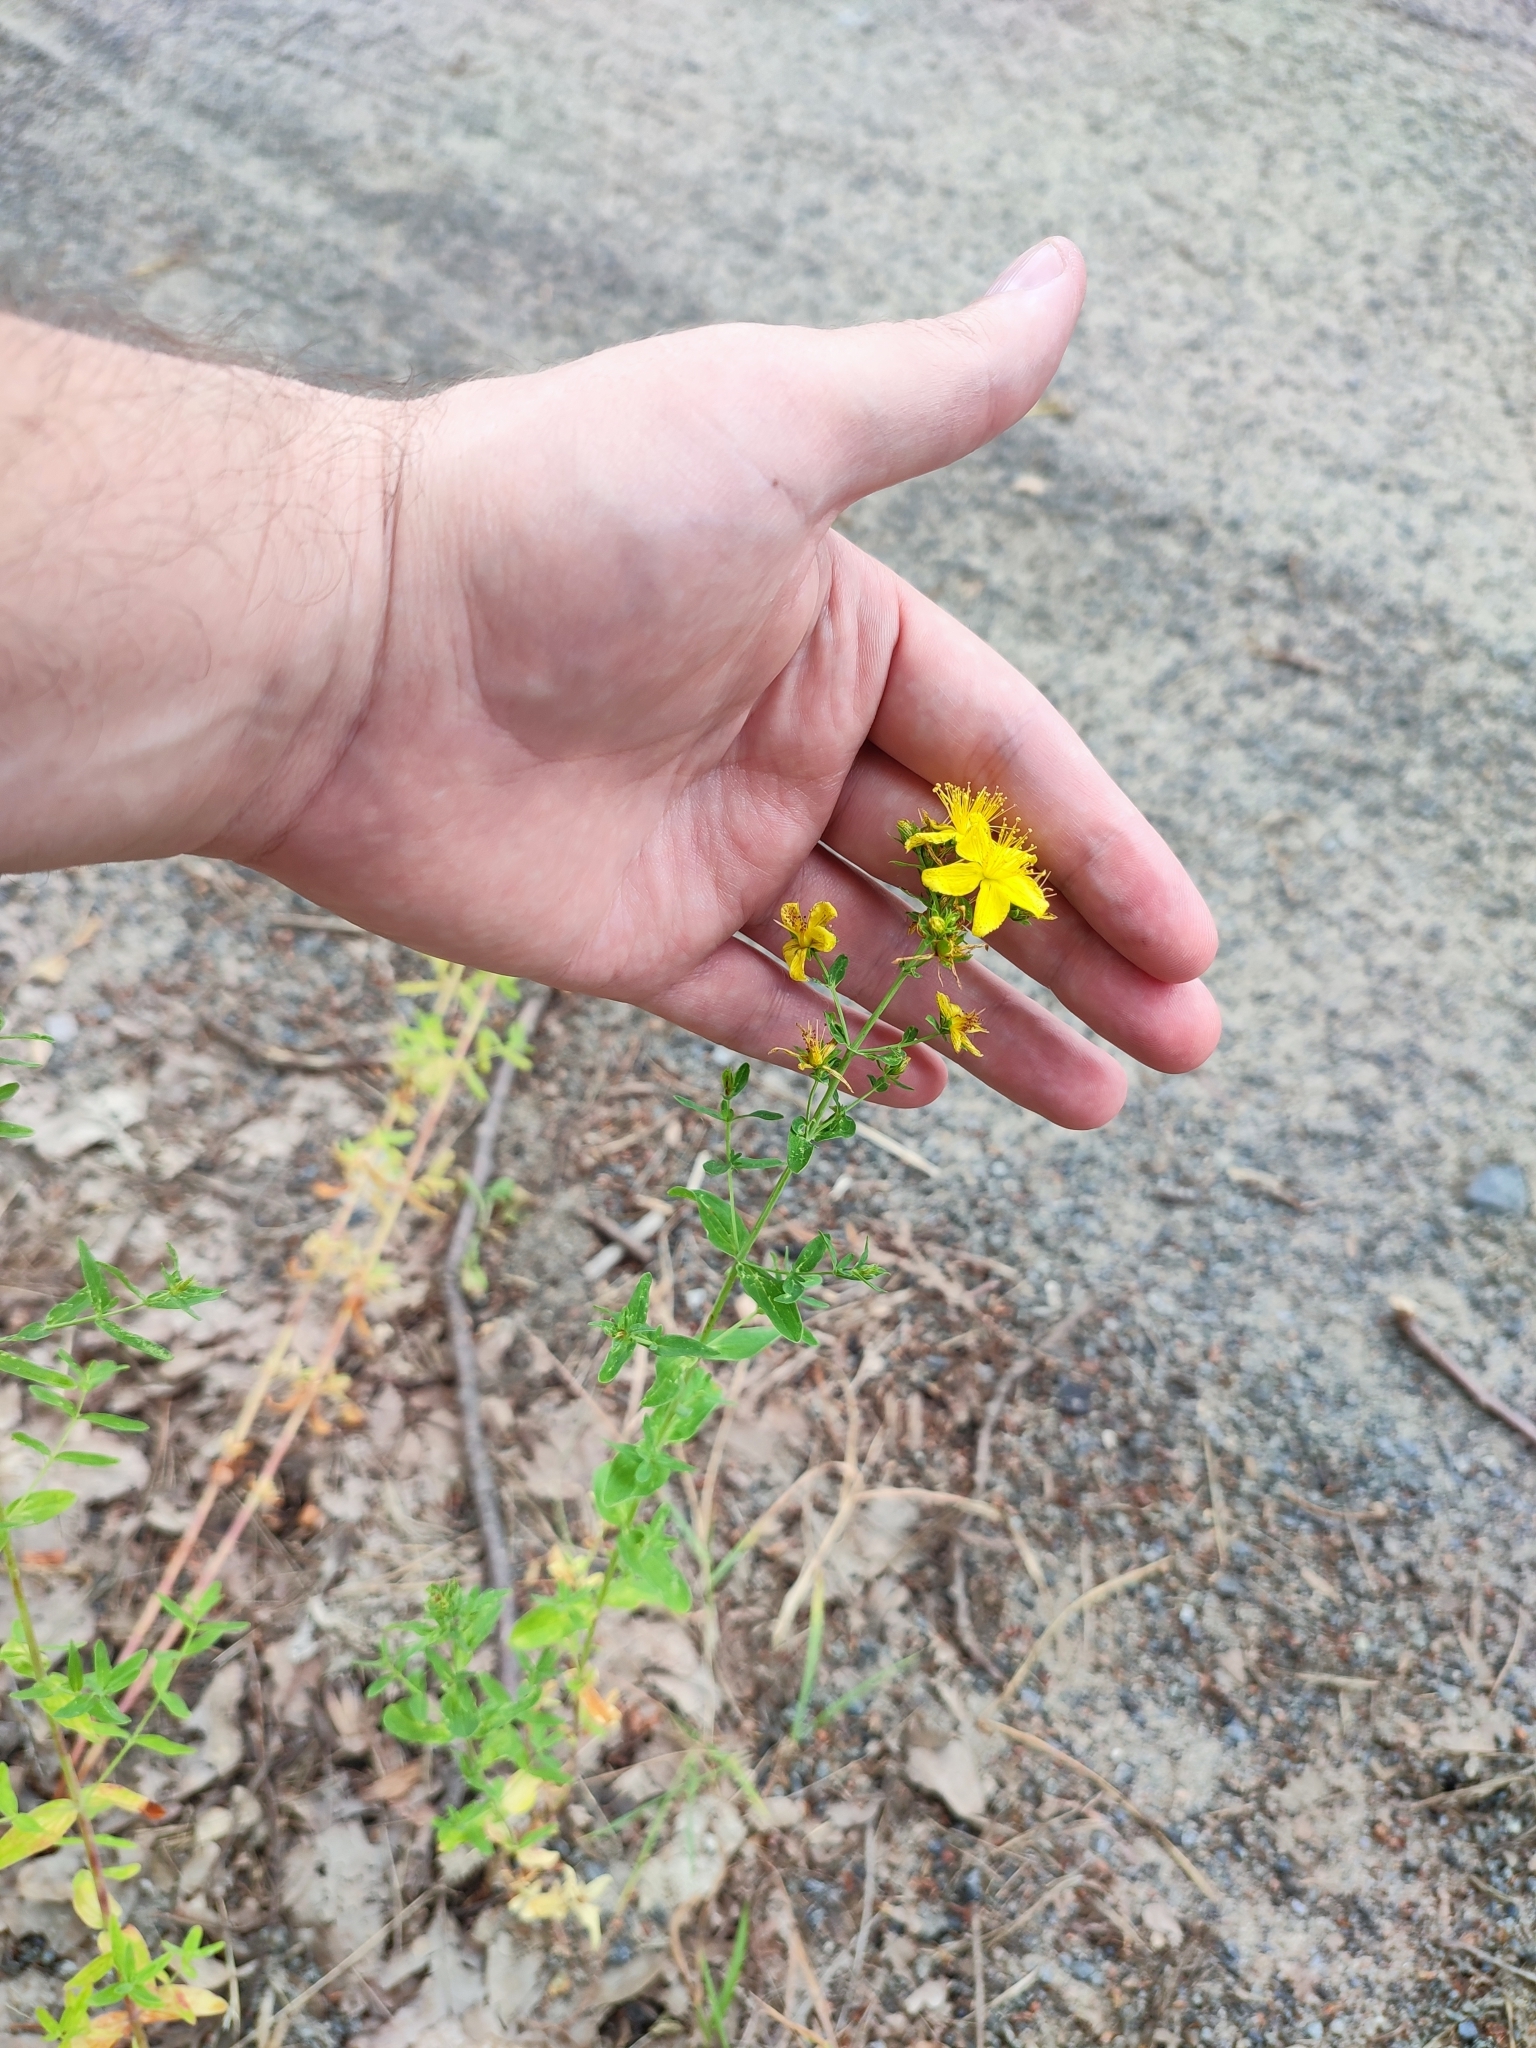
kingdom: Plantae
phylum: Tracheophyta
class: Magnoliopsida
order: Malpighiales
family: Hypericaceae
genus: Hypericum
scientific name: Hypericum perforatum
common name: Common st. johnswort
